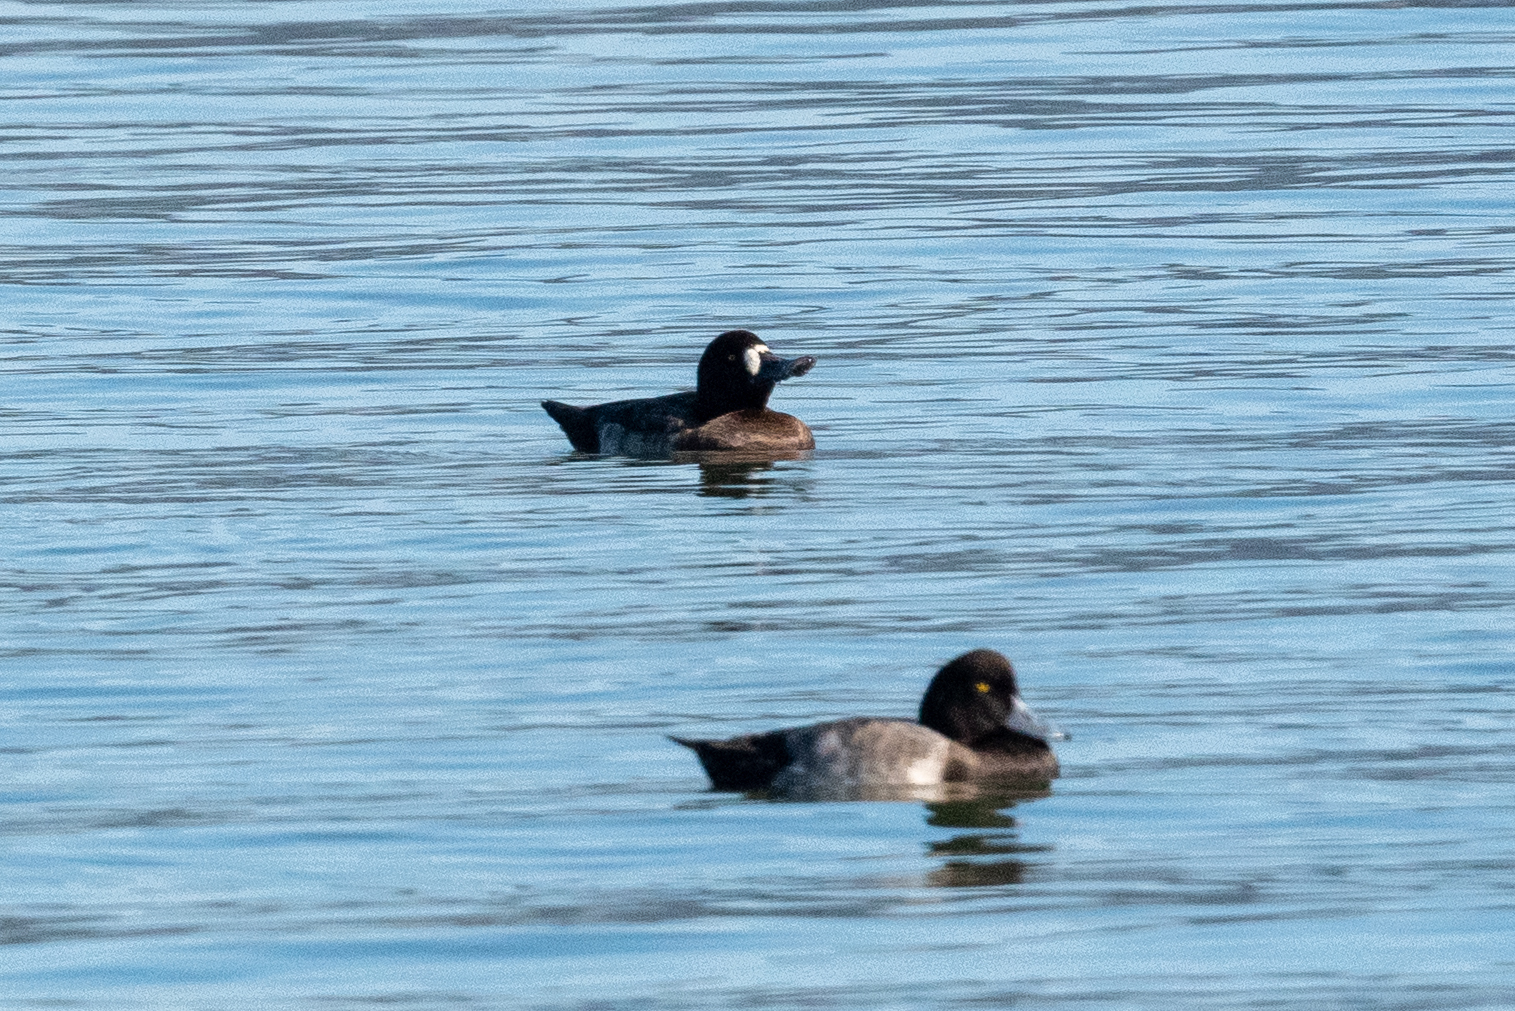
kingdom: Animalia
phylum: Chordata
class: Aves
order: Anseriformes
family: Anatidae
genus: Aythya
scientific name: Aythya marila
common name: Greater scaup
